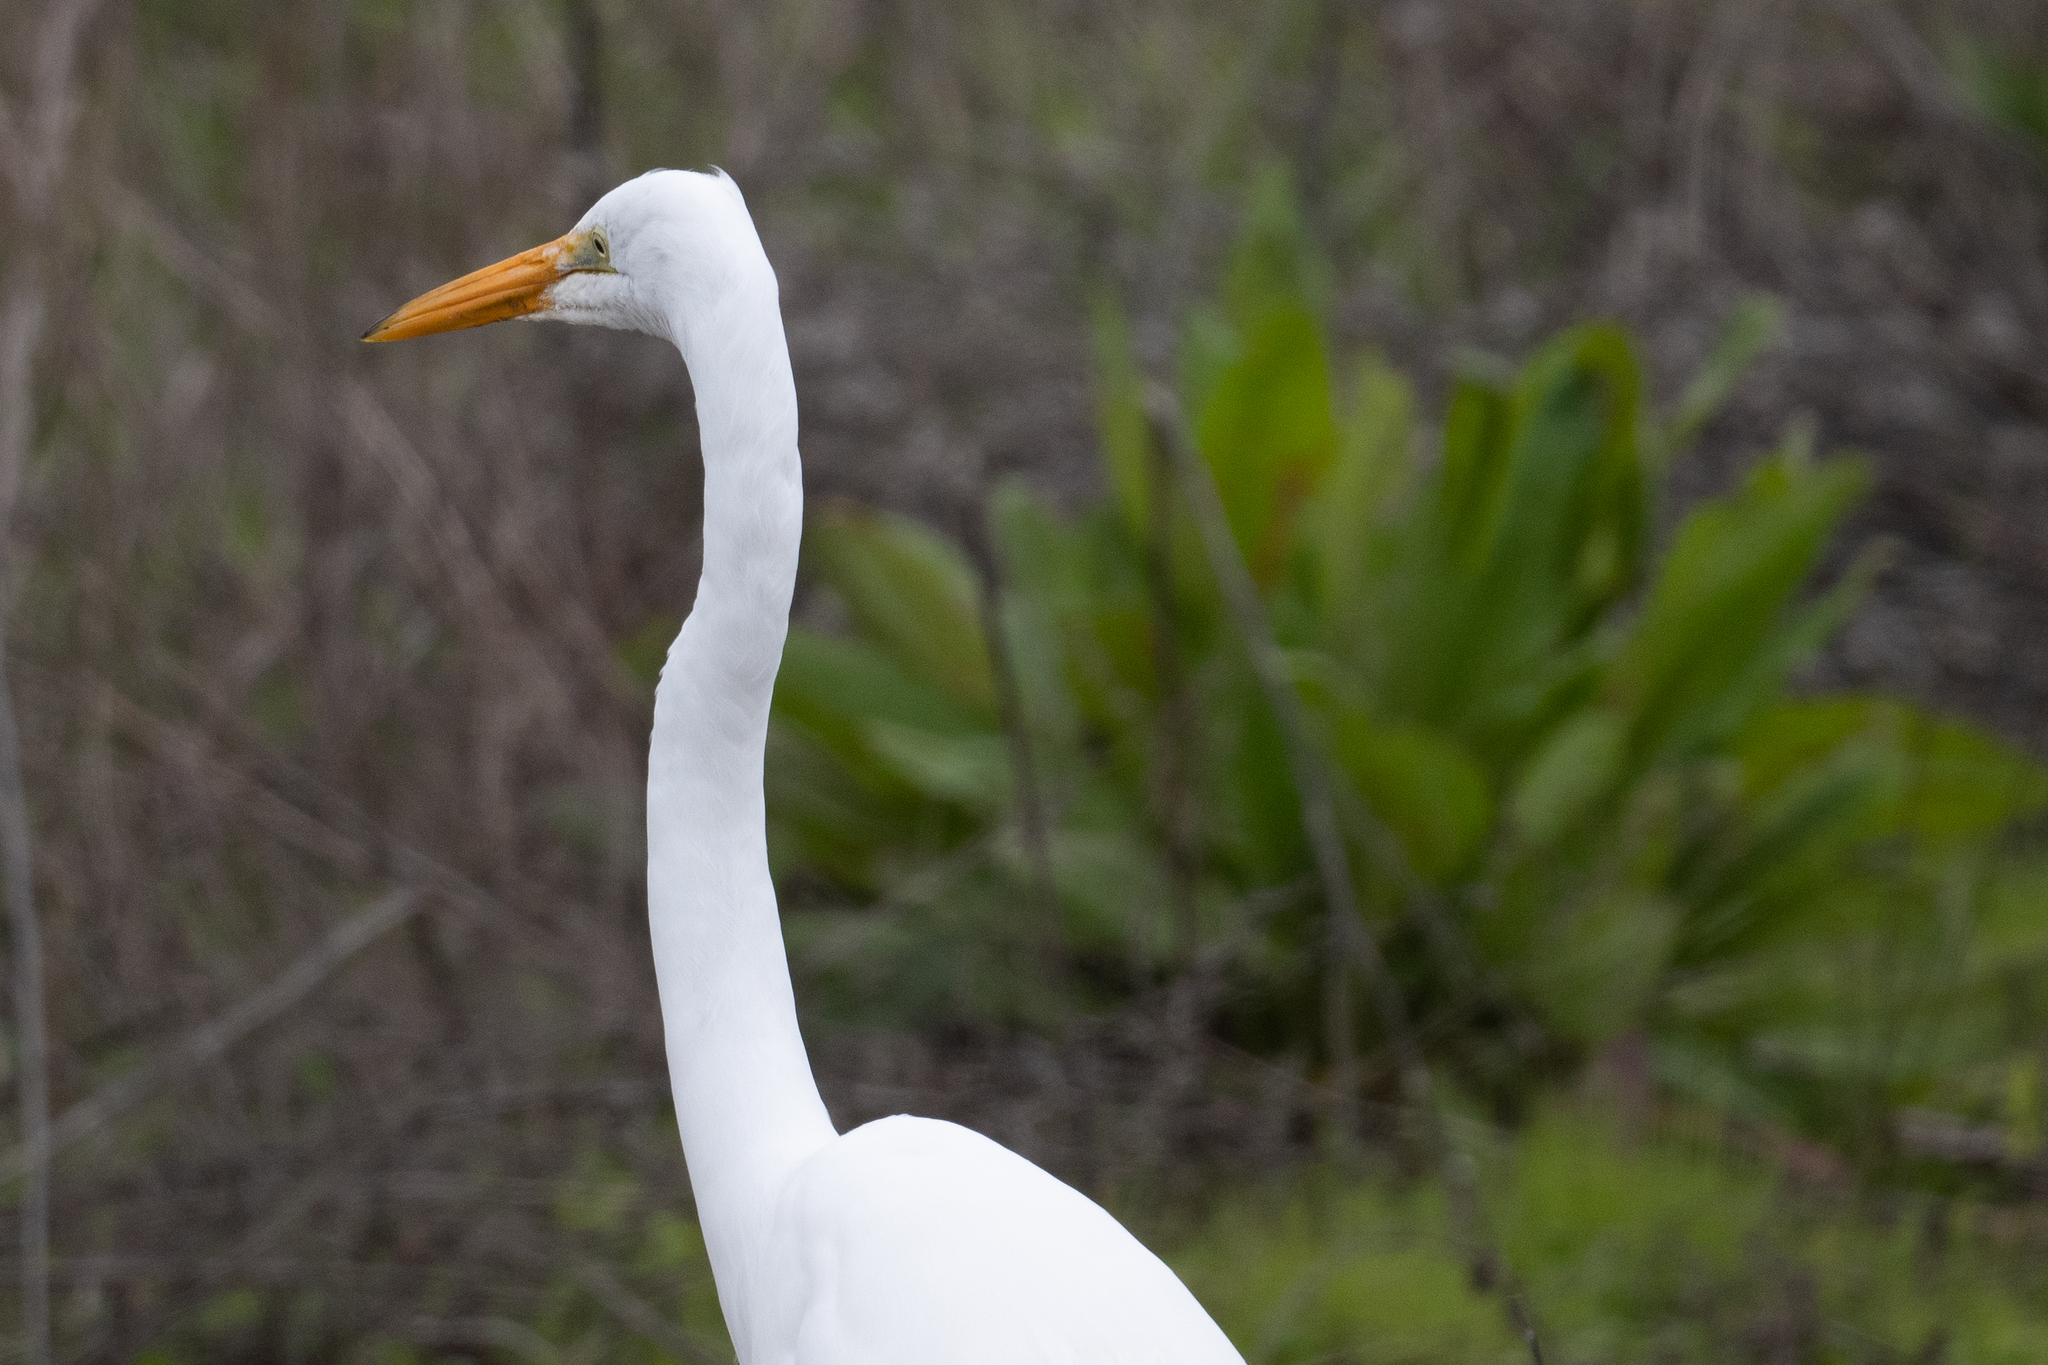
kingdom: Animalia
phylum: Chordata
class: Aves
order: Pelecaniformes
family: Ardeidae
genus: Ardea
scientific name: Ardea alba
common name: Great egret
